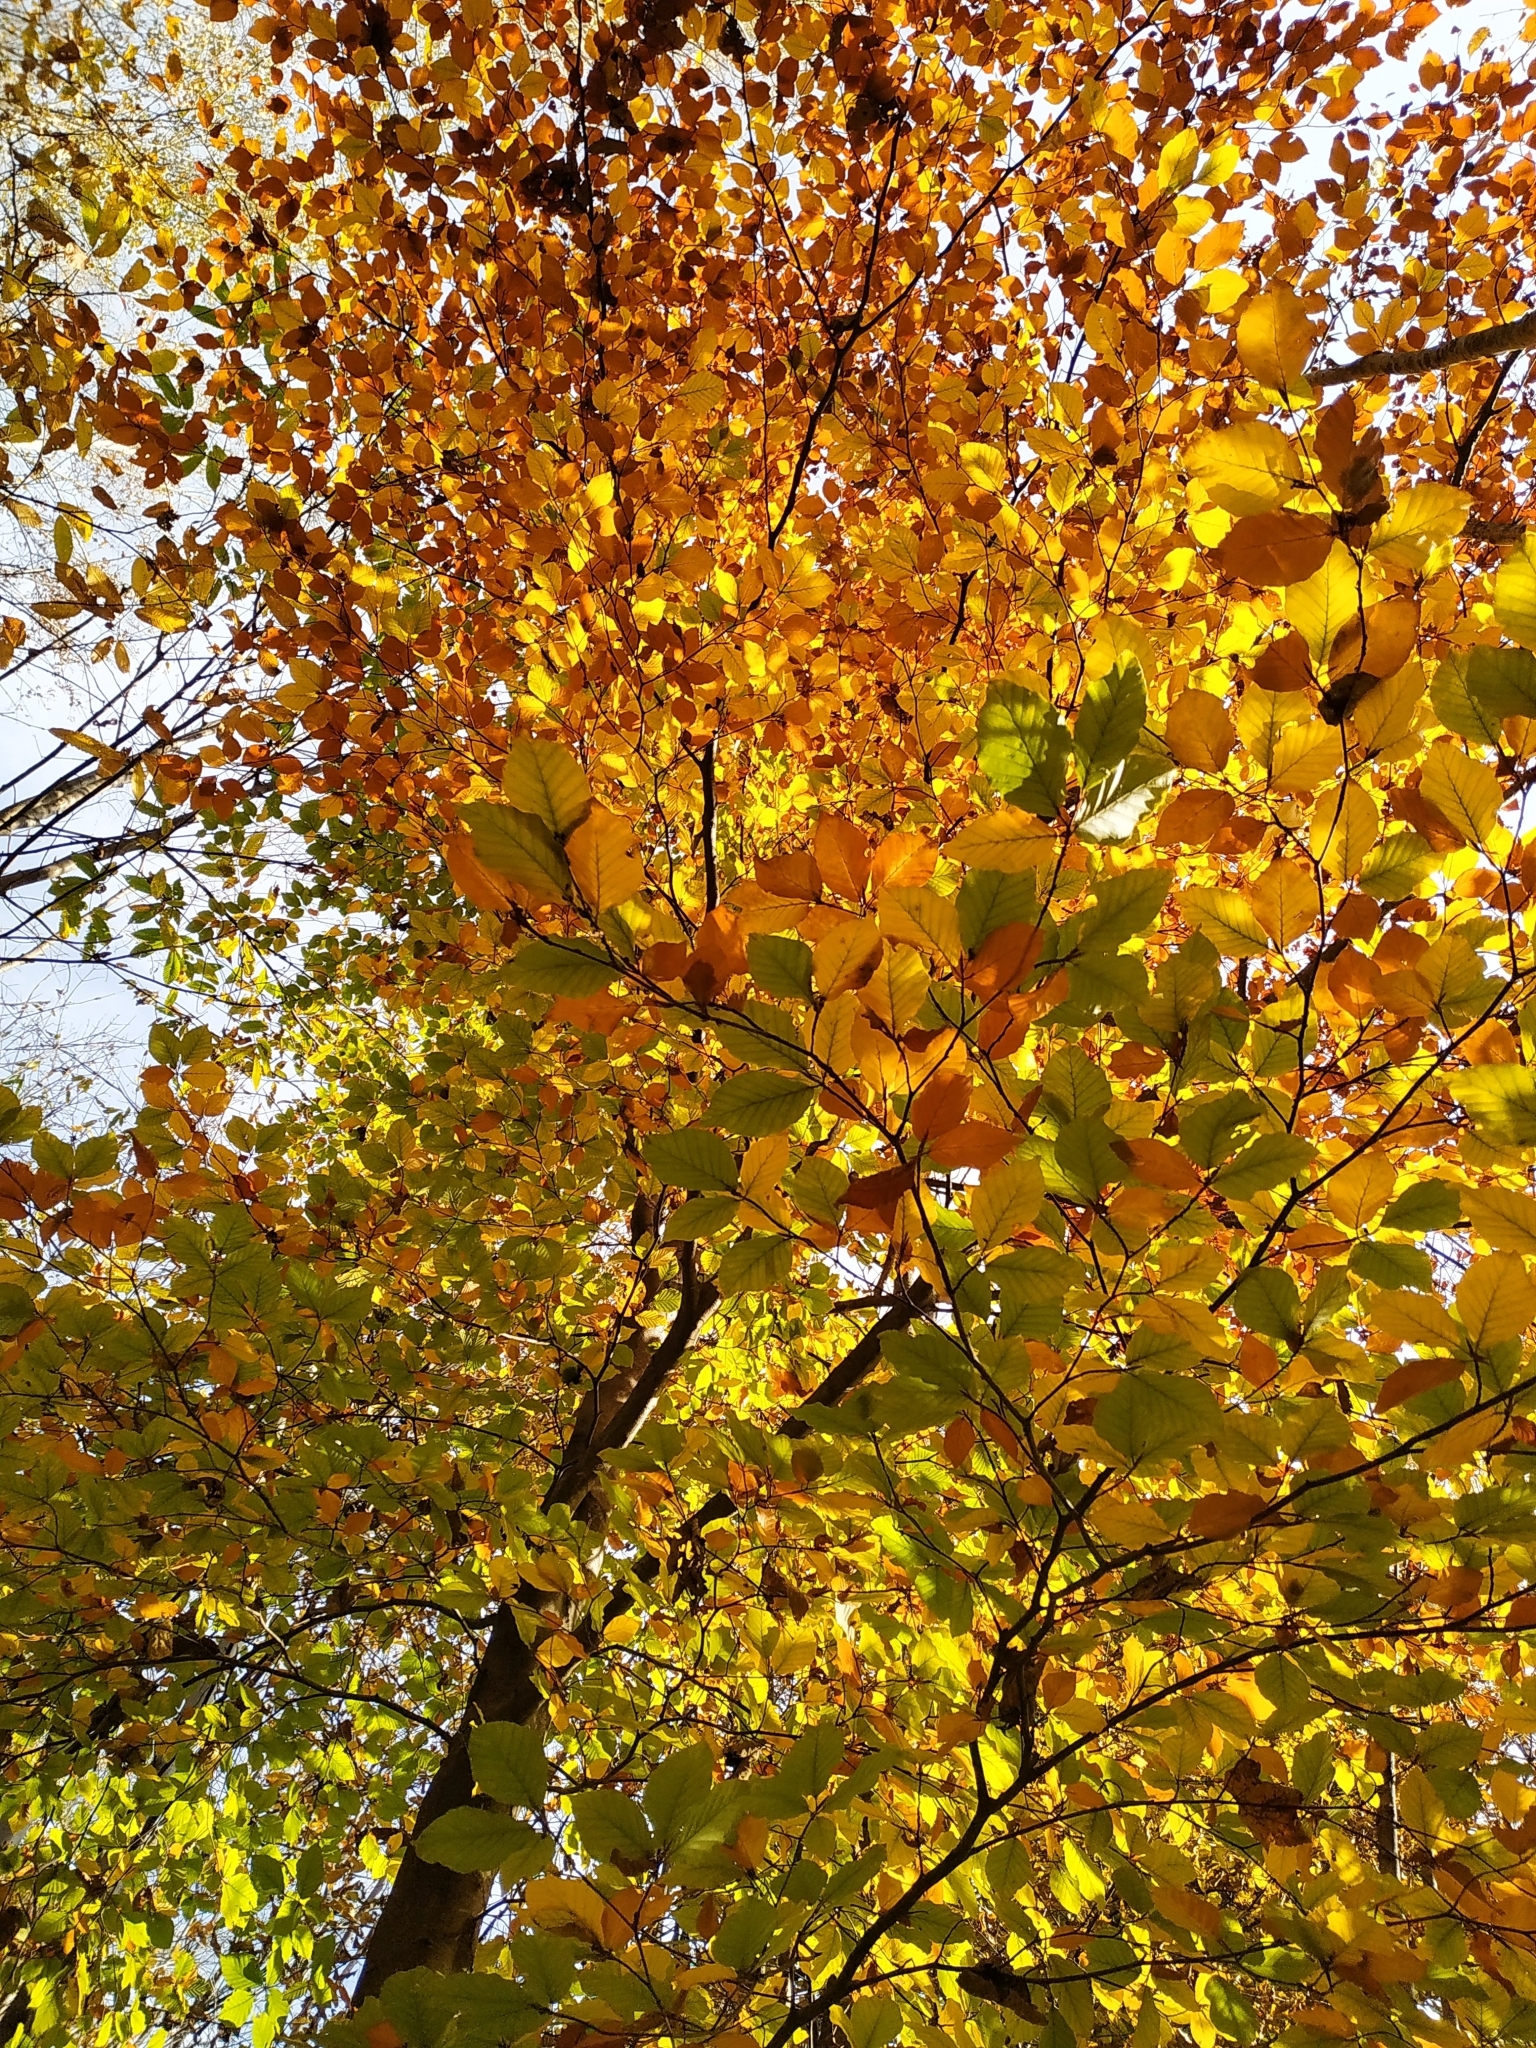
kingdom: Plantae
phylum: Tracheophyta
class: Magnoliopsida
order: Fagales
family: Fagaceae
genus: Fagus
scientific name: Fagus sylvatica
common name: Beech
